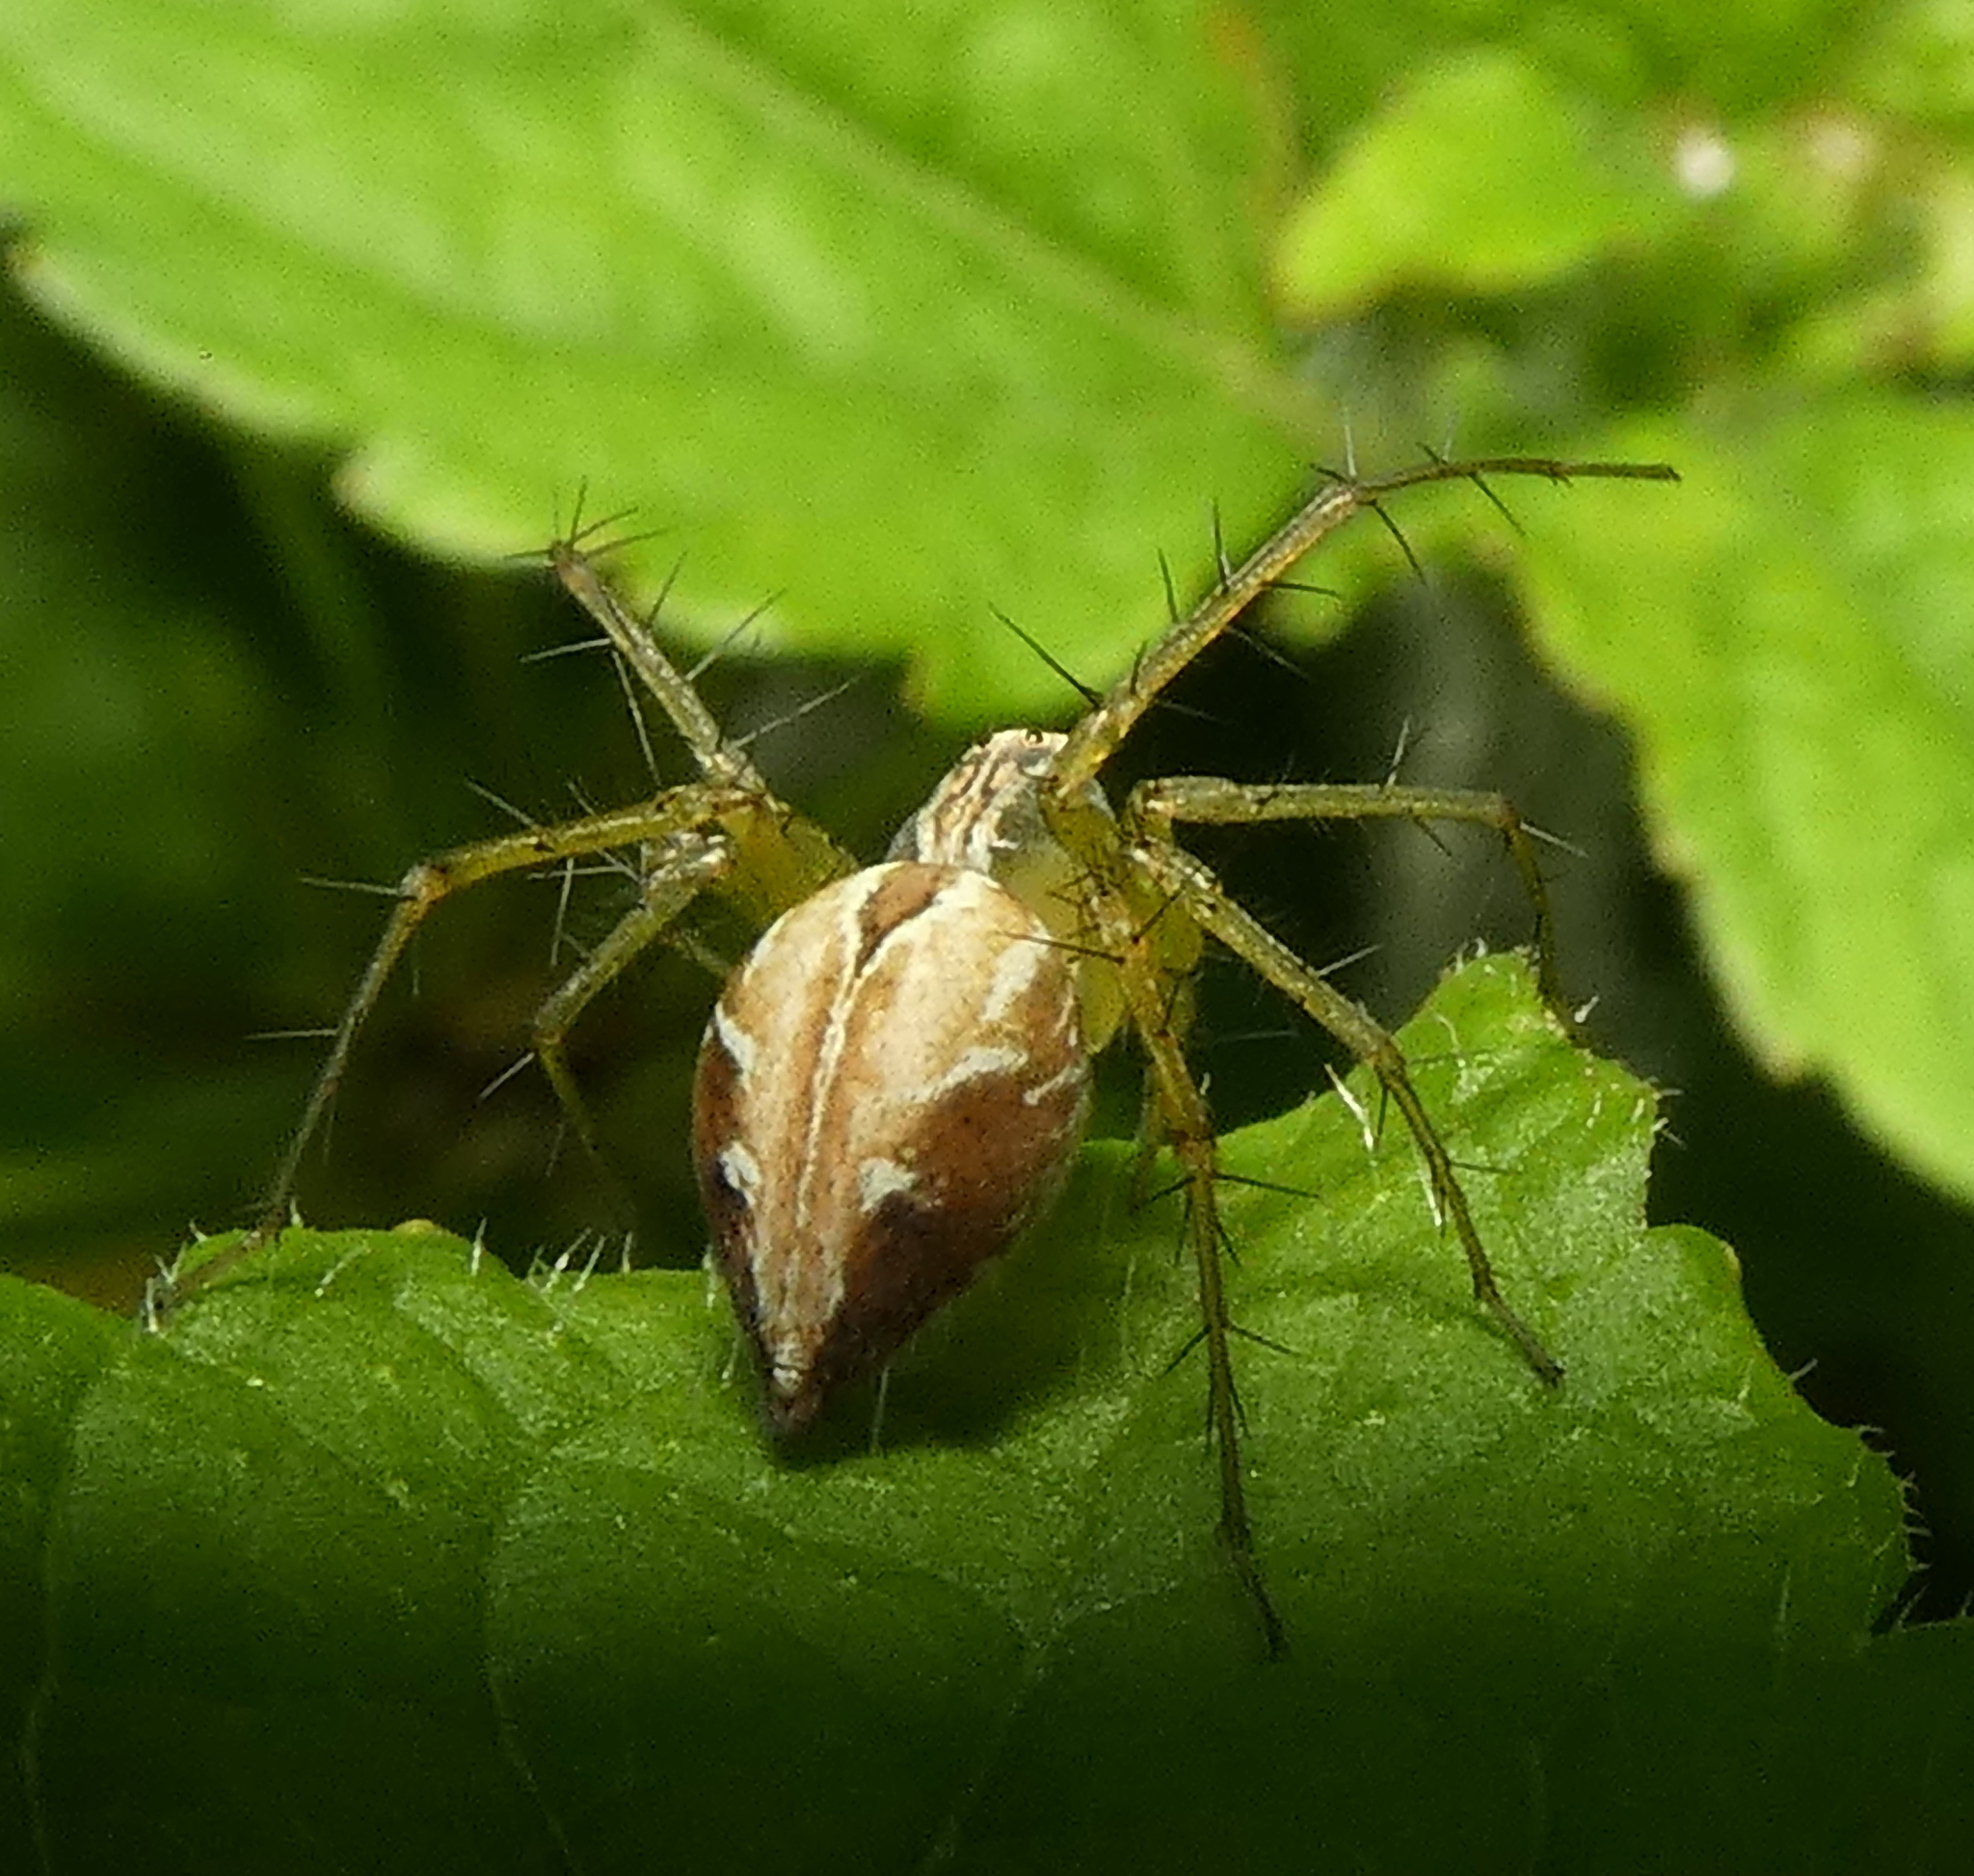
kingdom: Animalia
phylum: Arthropoda
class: Arachnida
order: Araneae
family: Oxyopidae
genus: Oxyopes
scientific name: Oxyopes salticus
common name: Lynx spiders
